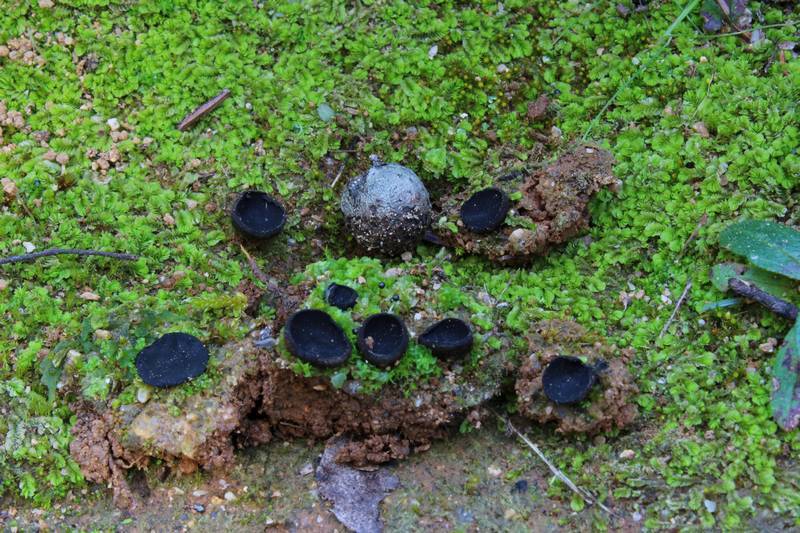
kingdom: Fungi
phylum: Ascomycota
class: Pezizomycetes
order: Pezizales
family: Sarcosomataceae
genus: Plectania
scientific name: Plectania ericae
